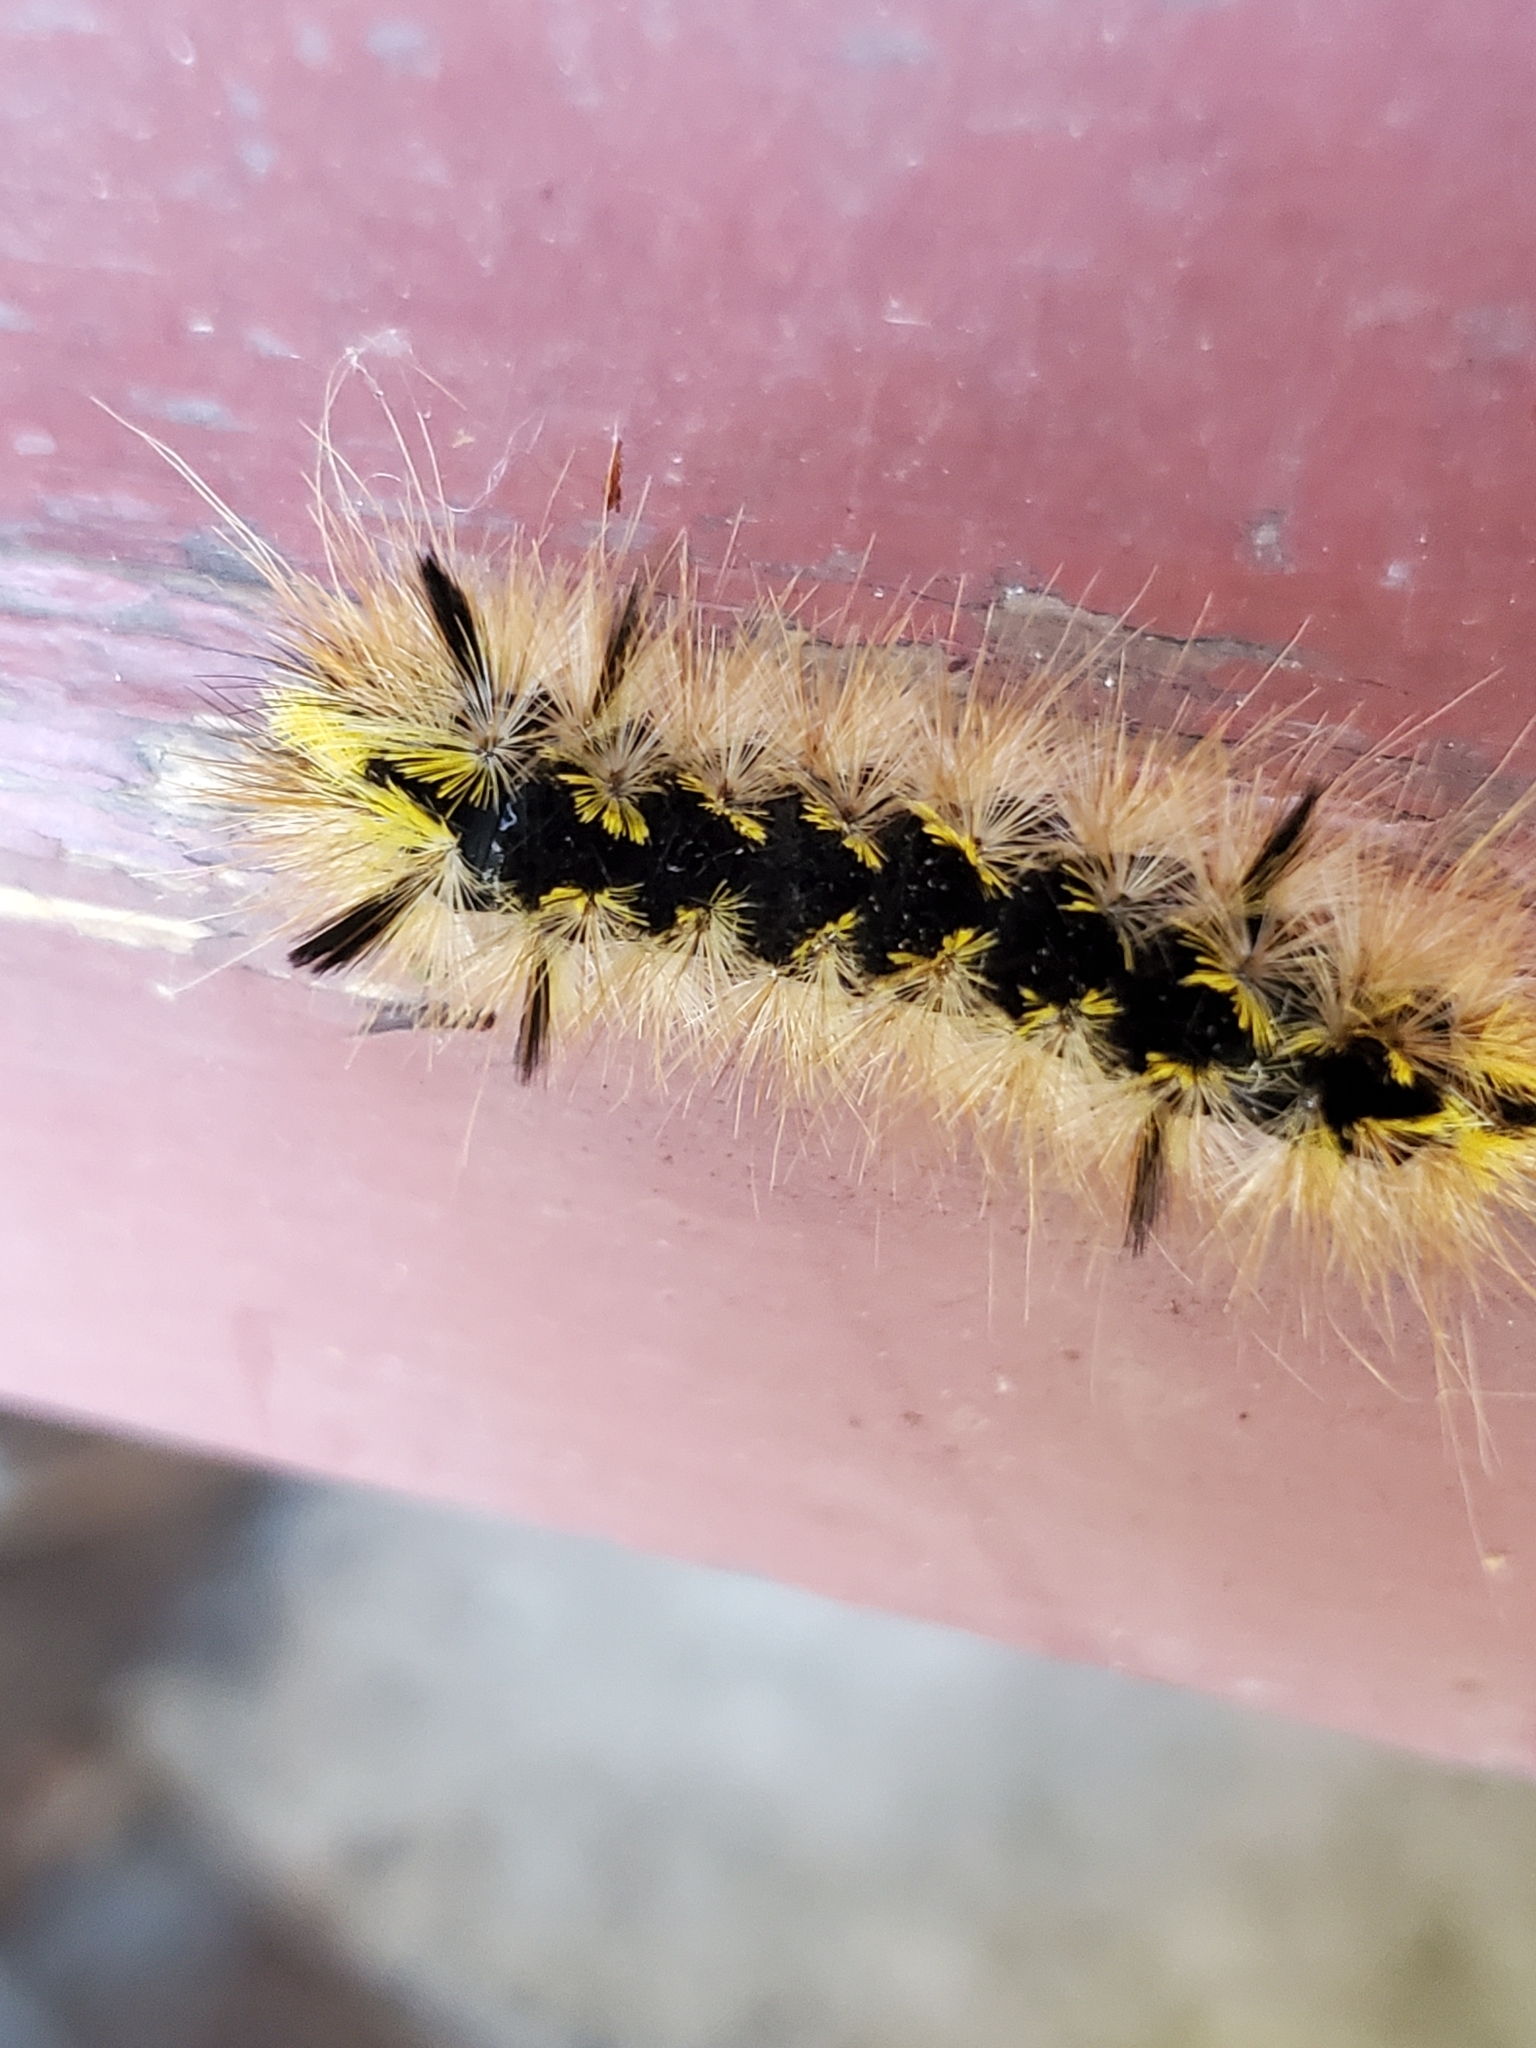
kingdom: Animalia
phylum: Arthropoda
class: Insecta
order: Lepidoptera
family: Erebidae
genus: Lophocampa
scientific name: Lophocampa argentata
